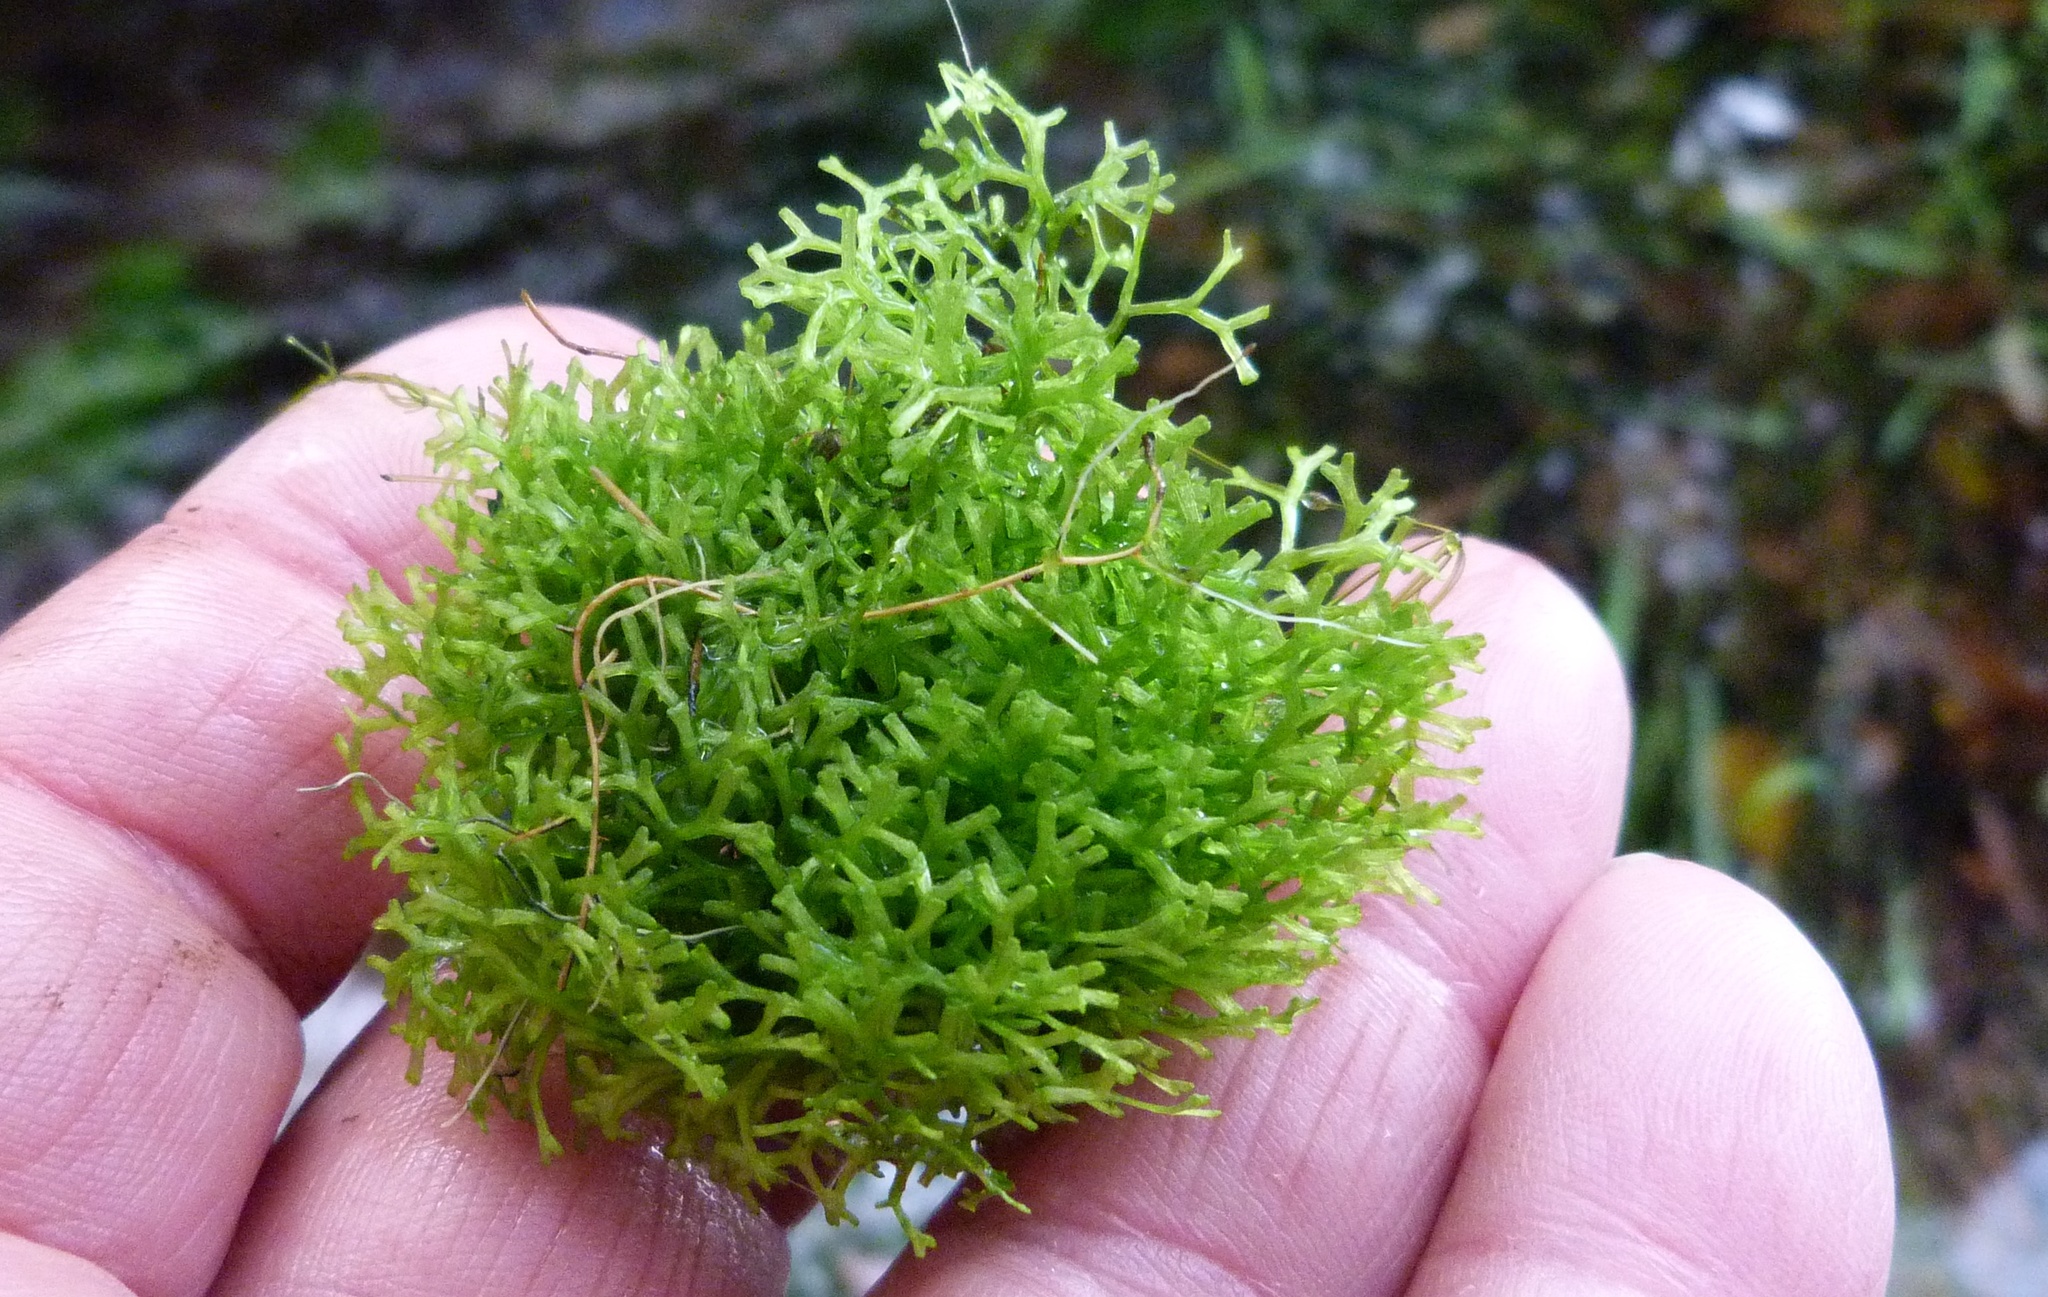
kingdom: Plantae
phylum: Marchantiophyta
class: Marchantiopsida
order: Marchantiales
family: Ricciaceae
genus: Riccia
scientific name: Riccia fluitans
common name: Floating crystalwort
